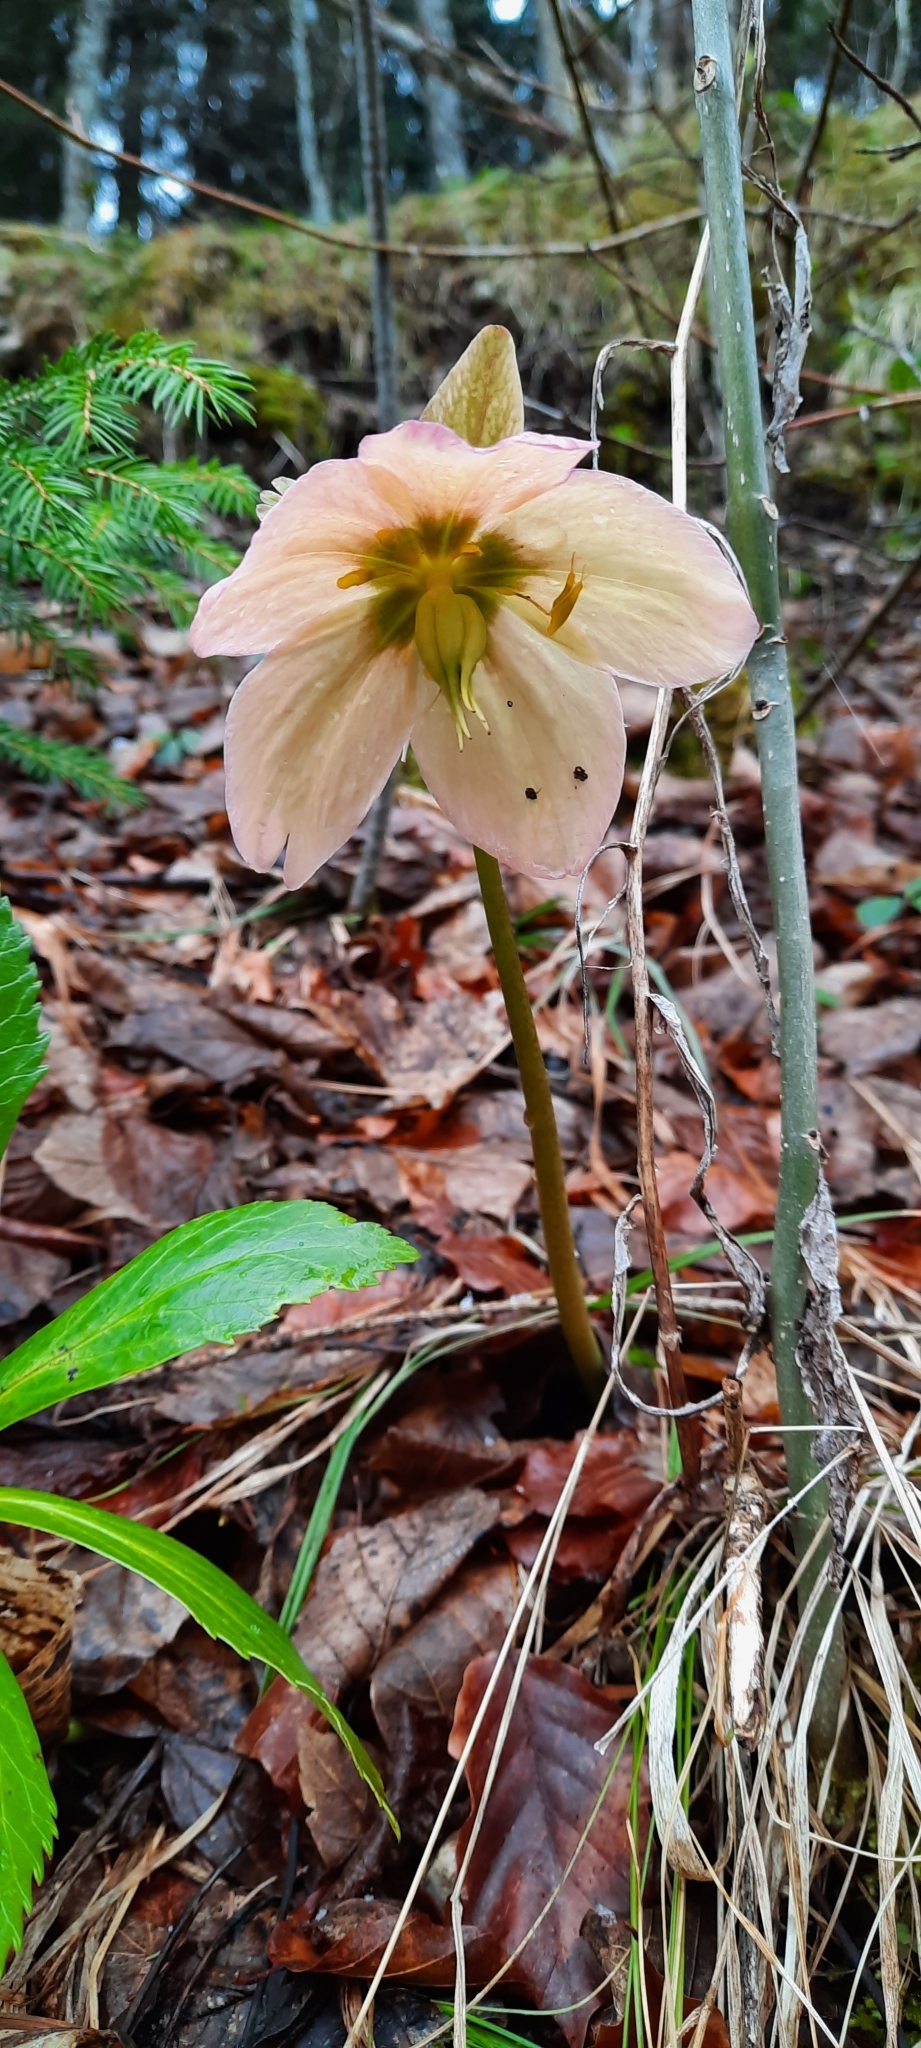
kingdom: Plantae
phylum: Tracheophyta
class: Magnoliopsida
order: Ranunculales
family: Ranunculaceae
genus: Helleborus
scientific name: Helleborus niger
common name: Black hellebore
